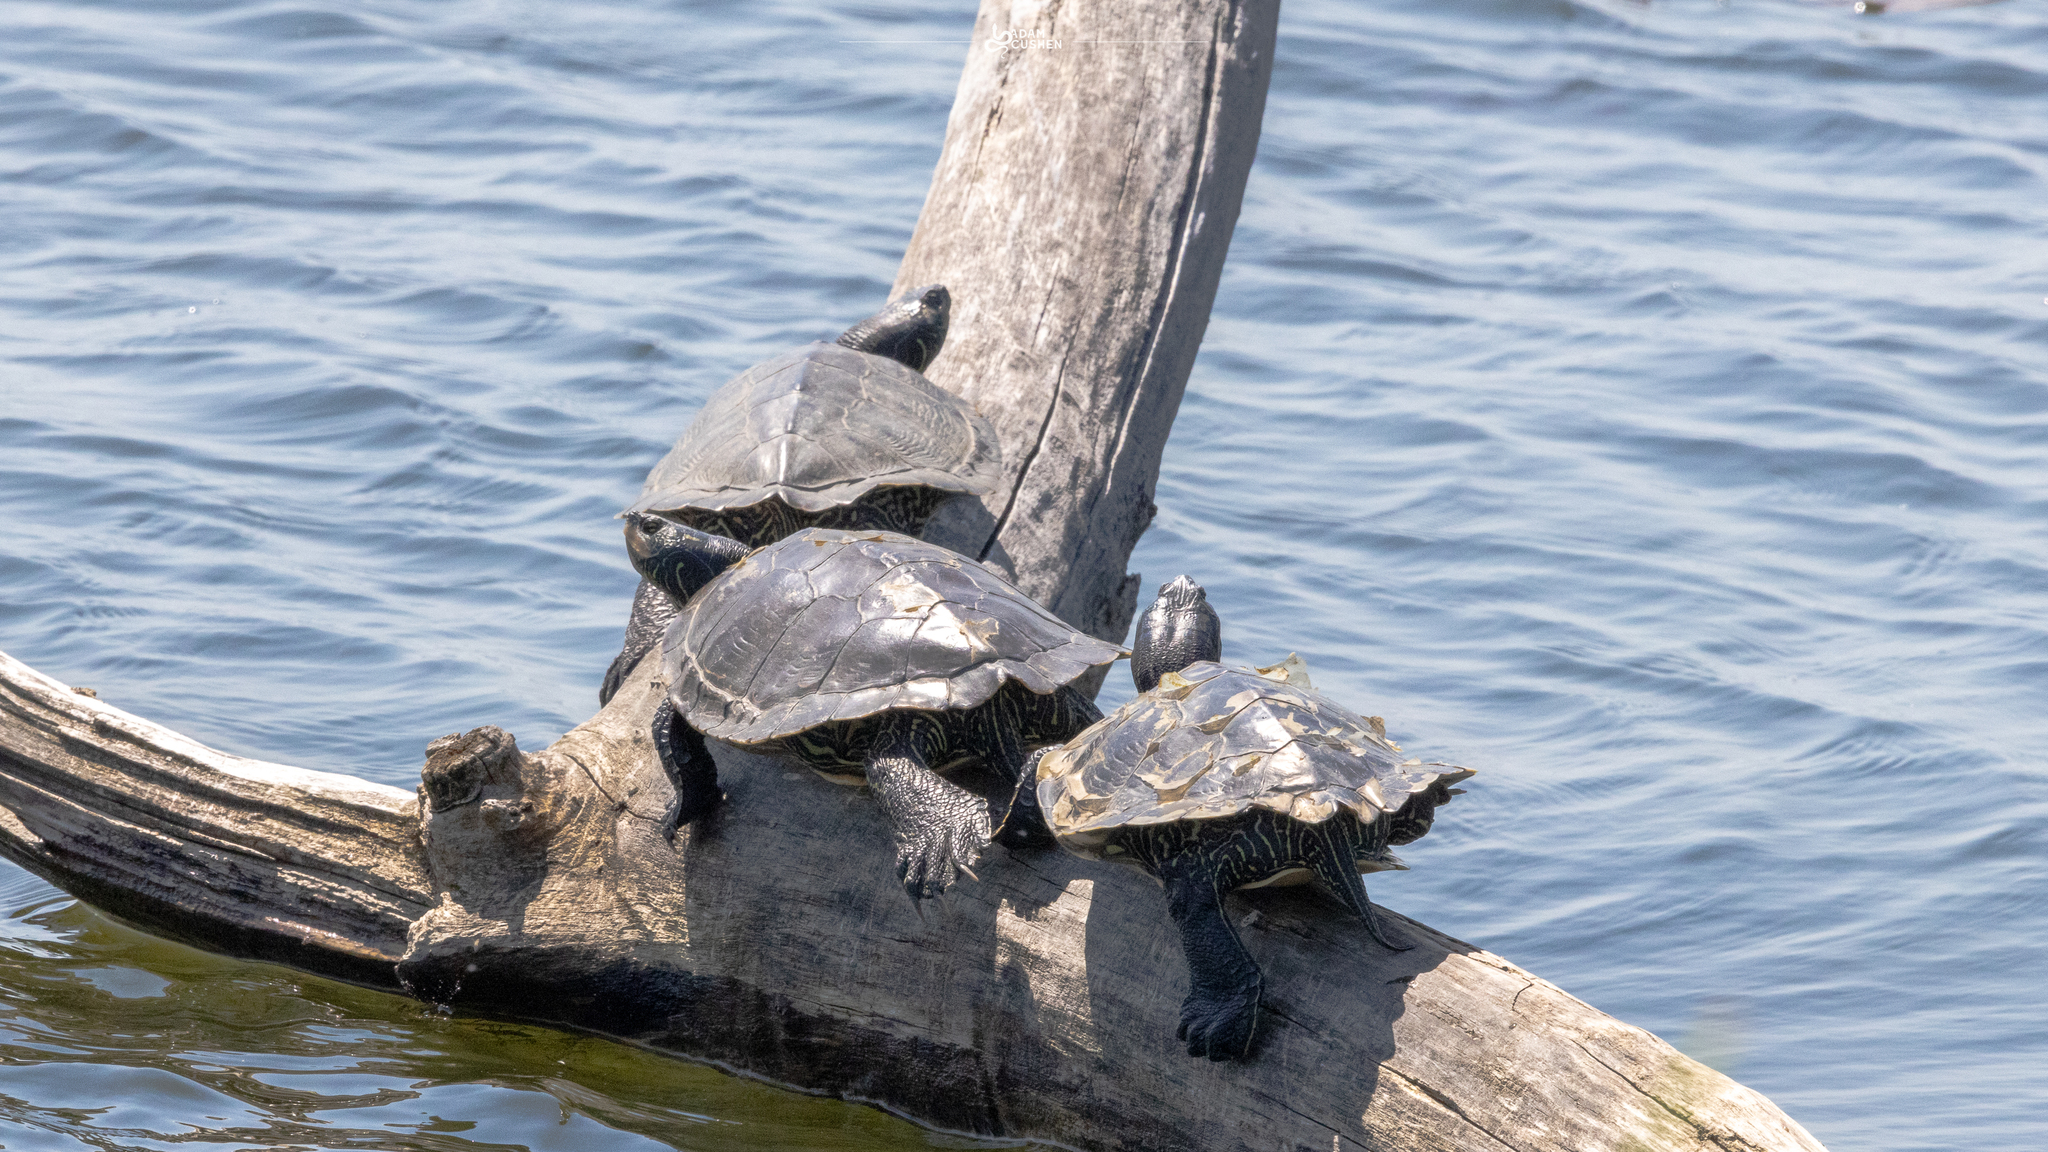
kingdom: Animalia
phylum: Chordata
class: Testudines
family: Emydidae
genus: Graptemys
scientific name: Graptemys geographica
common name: Common map turtle
